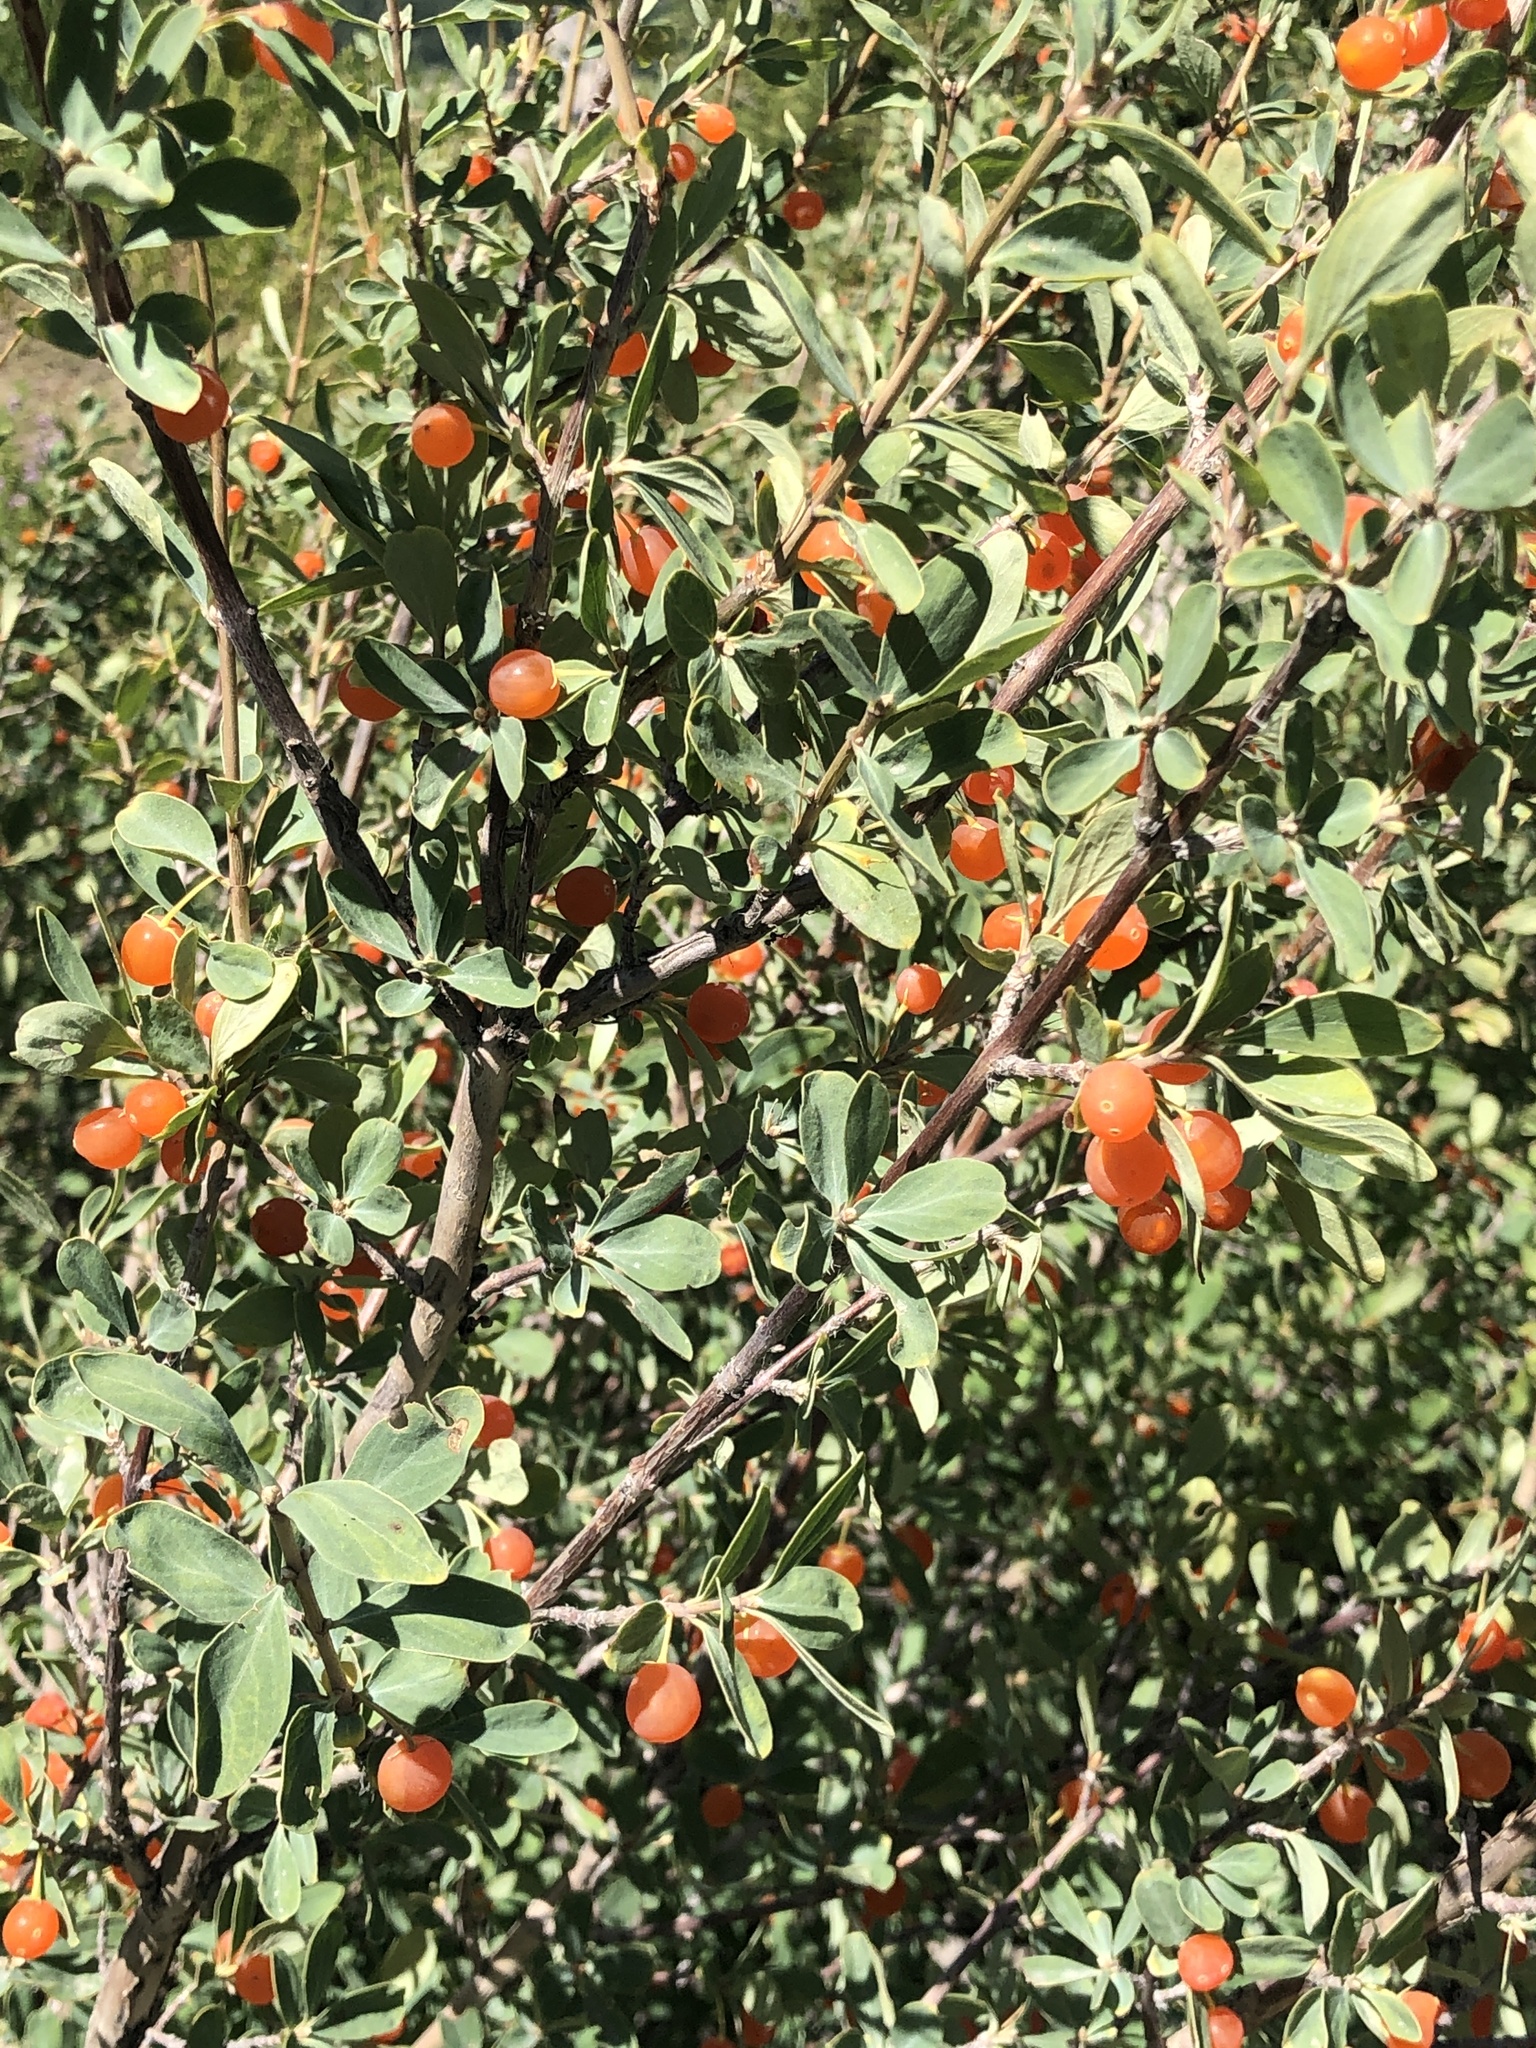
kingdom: Plantae
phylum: Tracheophyta
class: Magnoliopsida
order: Dipsacales
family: Caprifoliaceae
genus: Lonicera
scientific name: Lonicera microphylla
